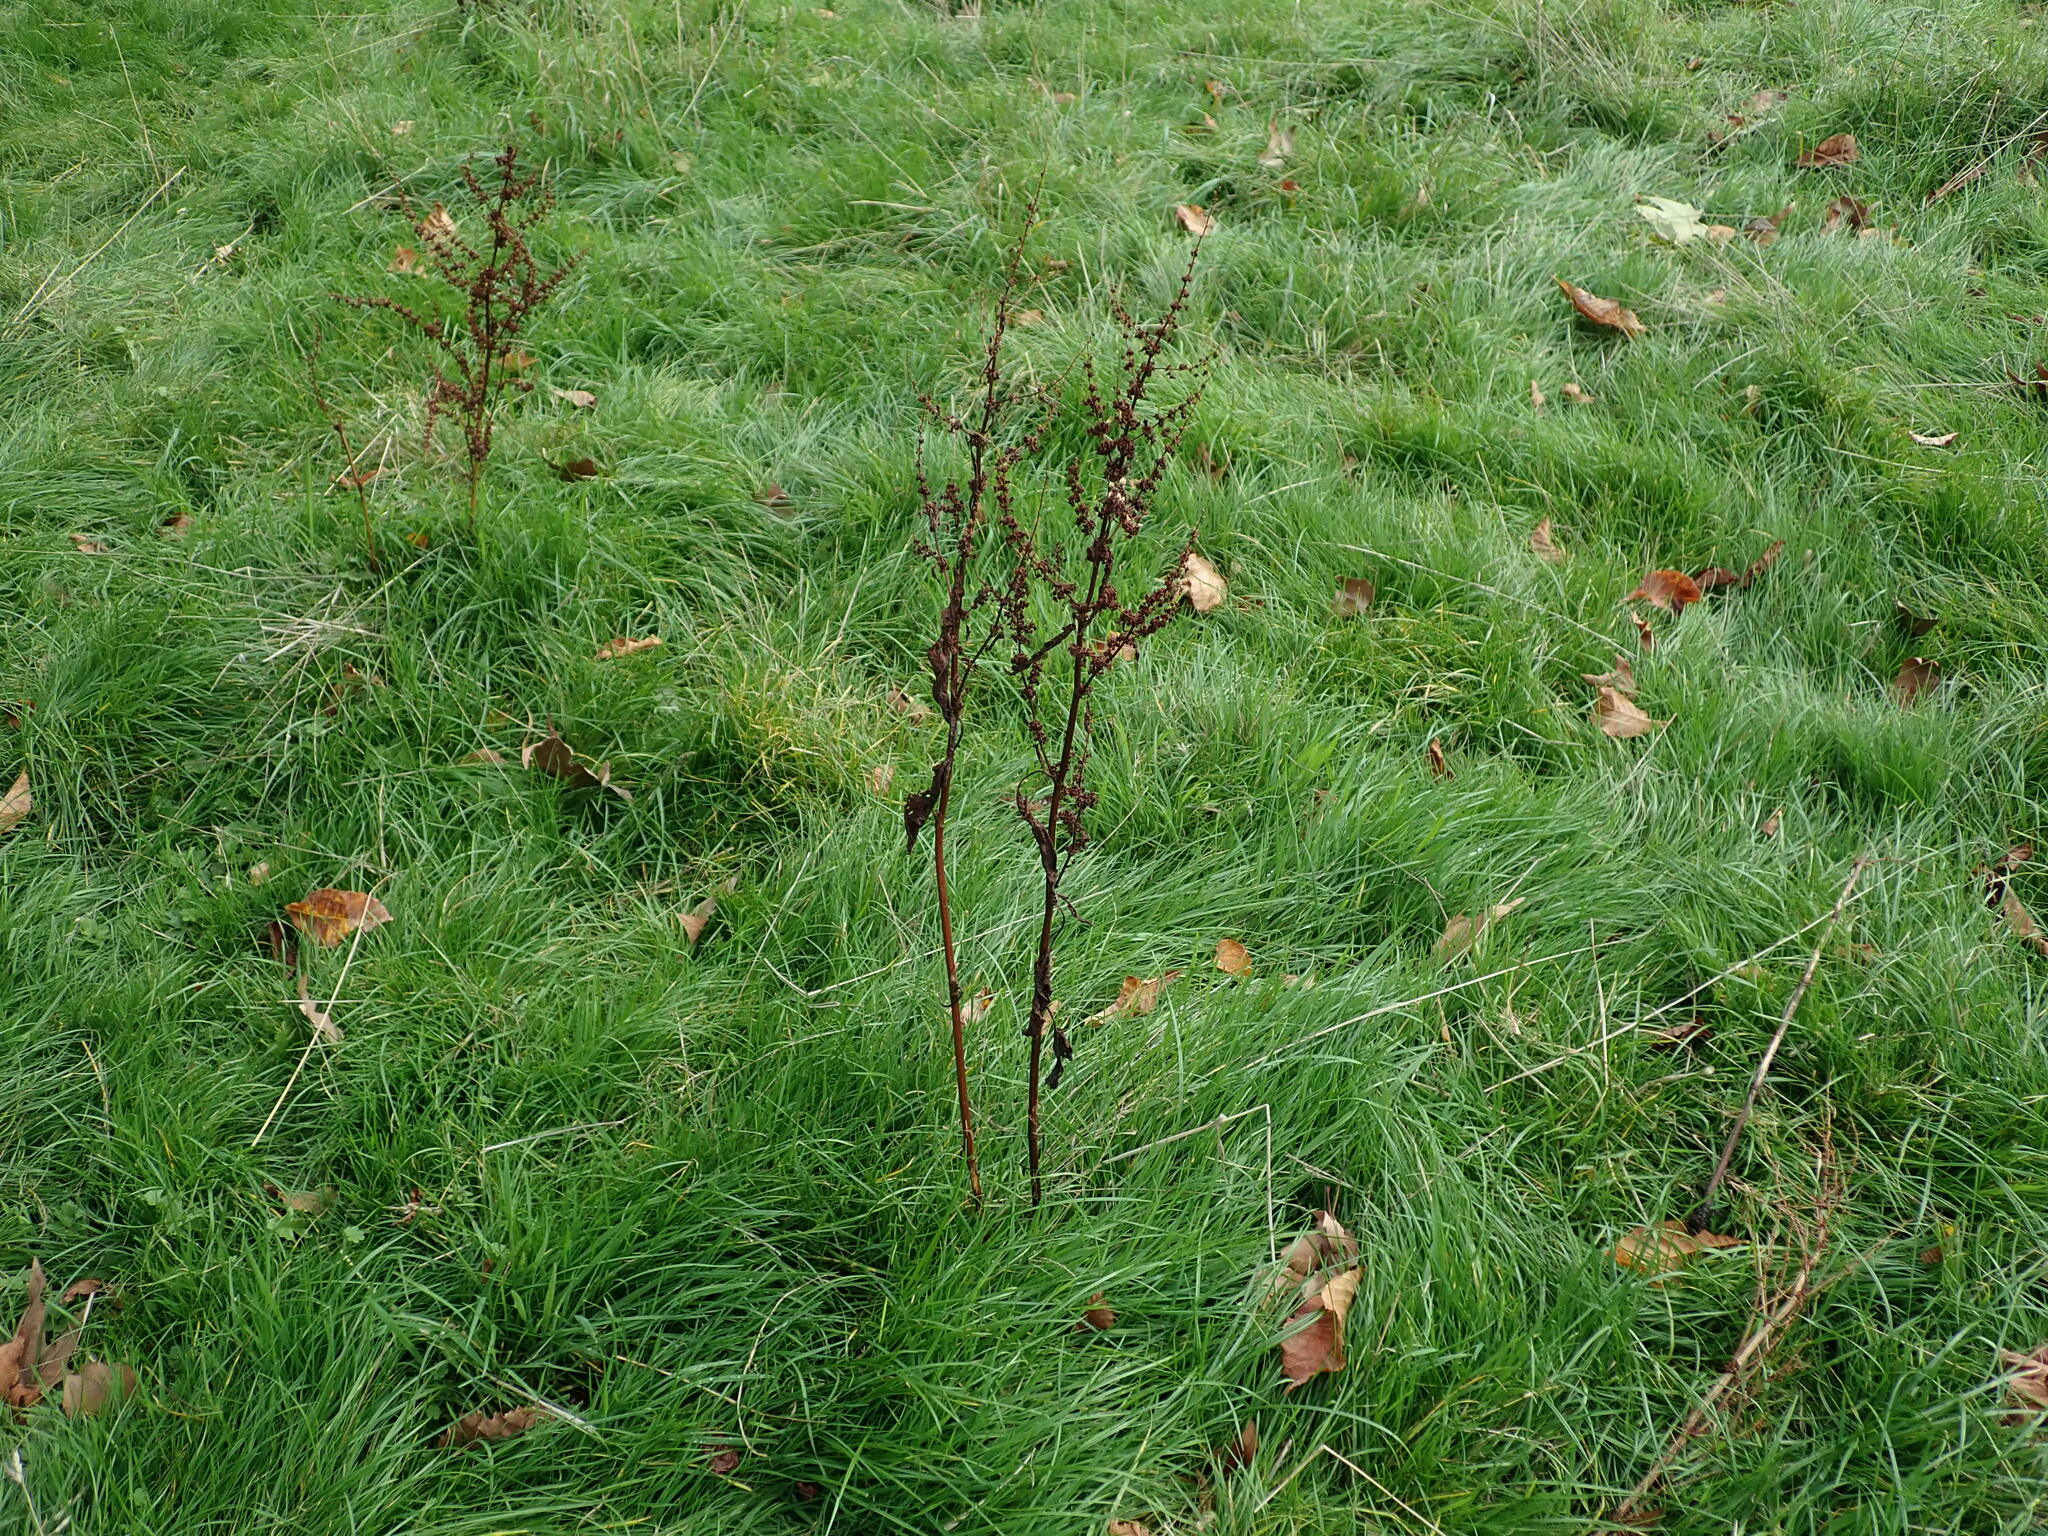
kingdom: Plantae
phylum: Tracheophyta
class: Magnoliopsida
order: Caryophyllales
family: Polygonaceae
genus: Rumex
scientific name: Rumex obtusifolius
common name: Bitter dock
